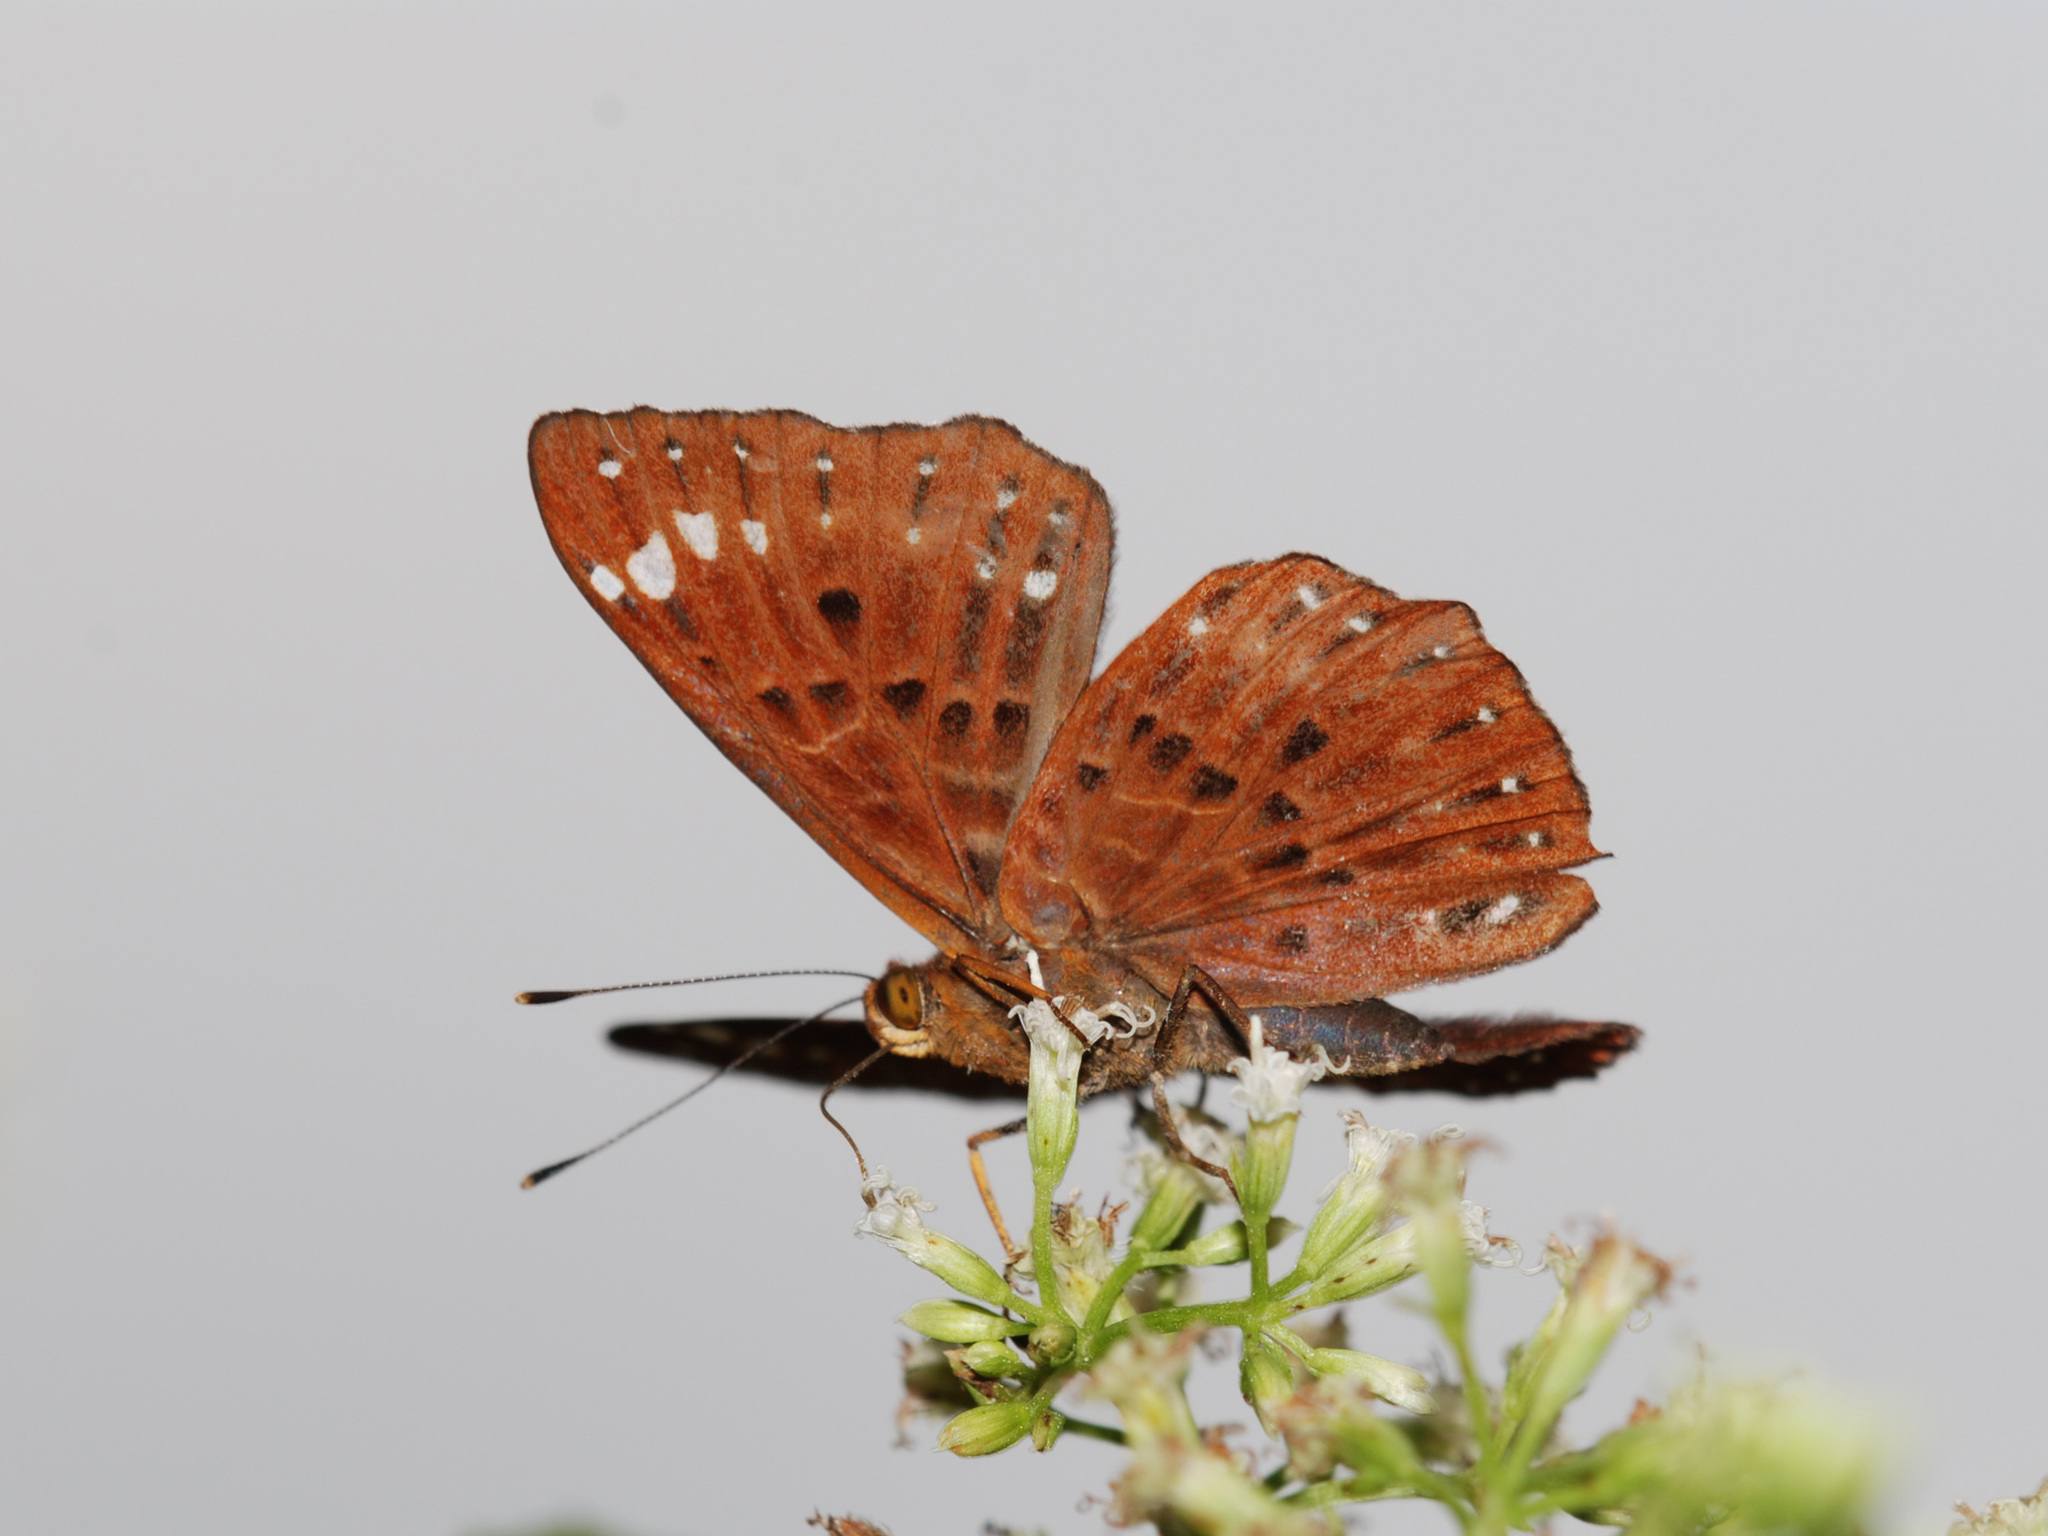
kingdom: Animalia
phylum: Arthropoda
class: Insecta
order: Lepidoptera
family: Riodinidae
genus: Zemeros
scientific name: Zemeros flegyas
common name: Punchinello
